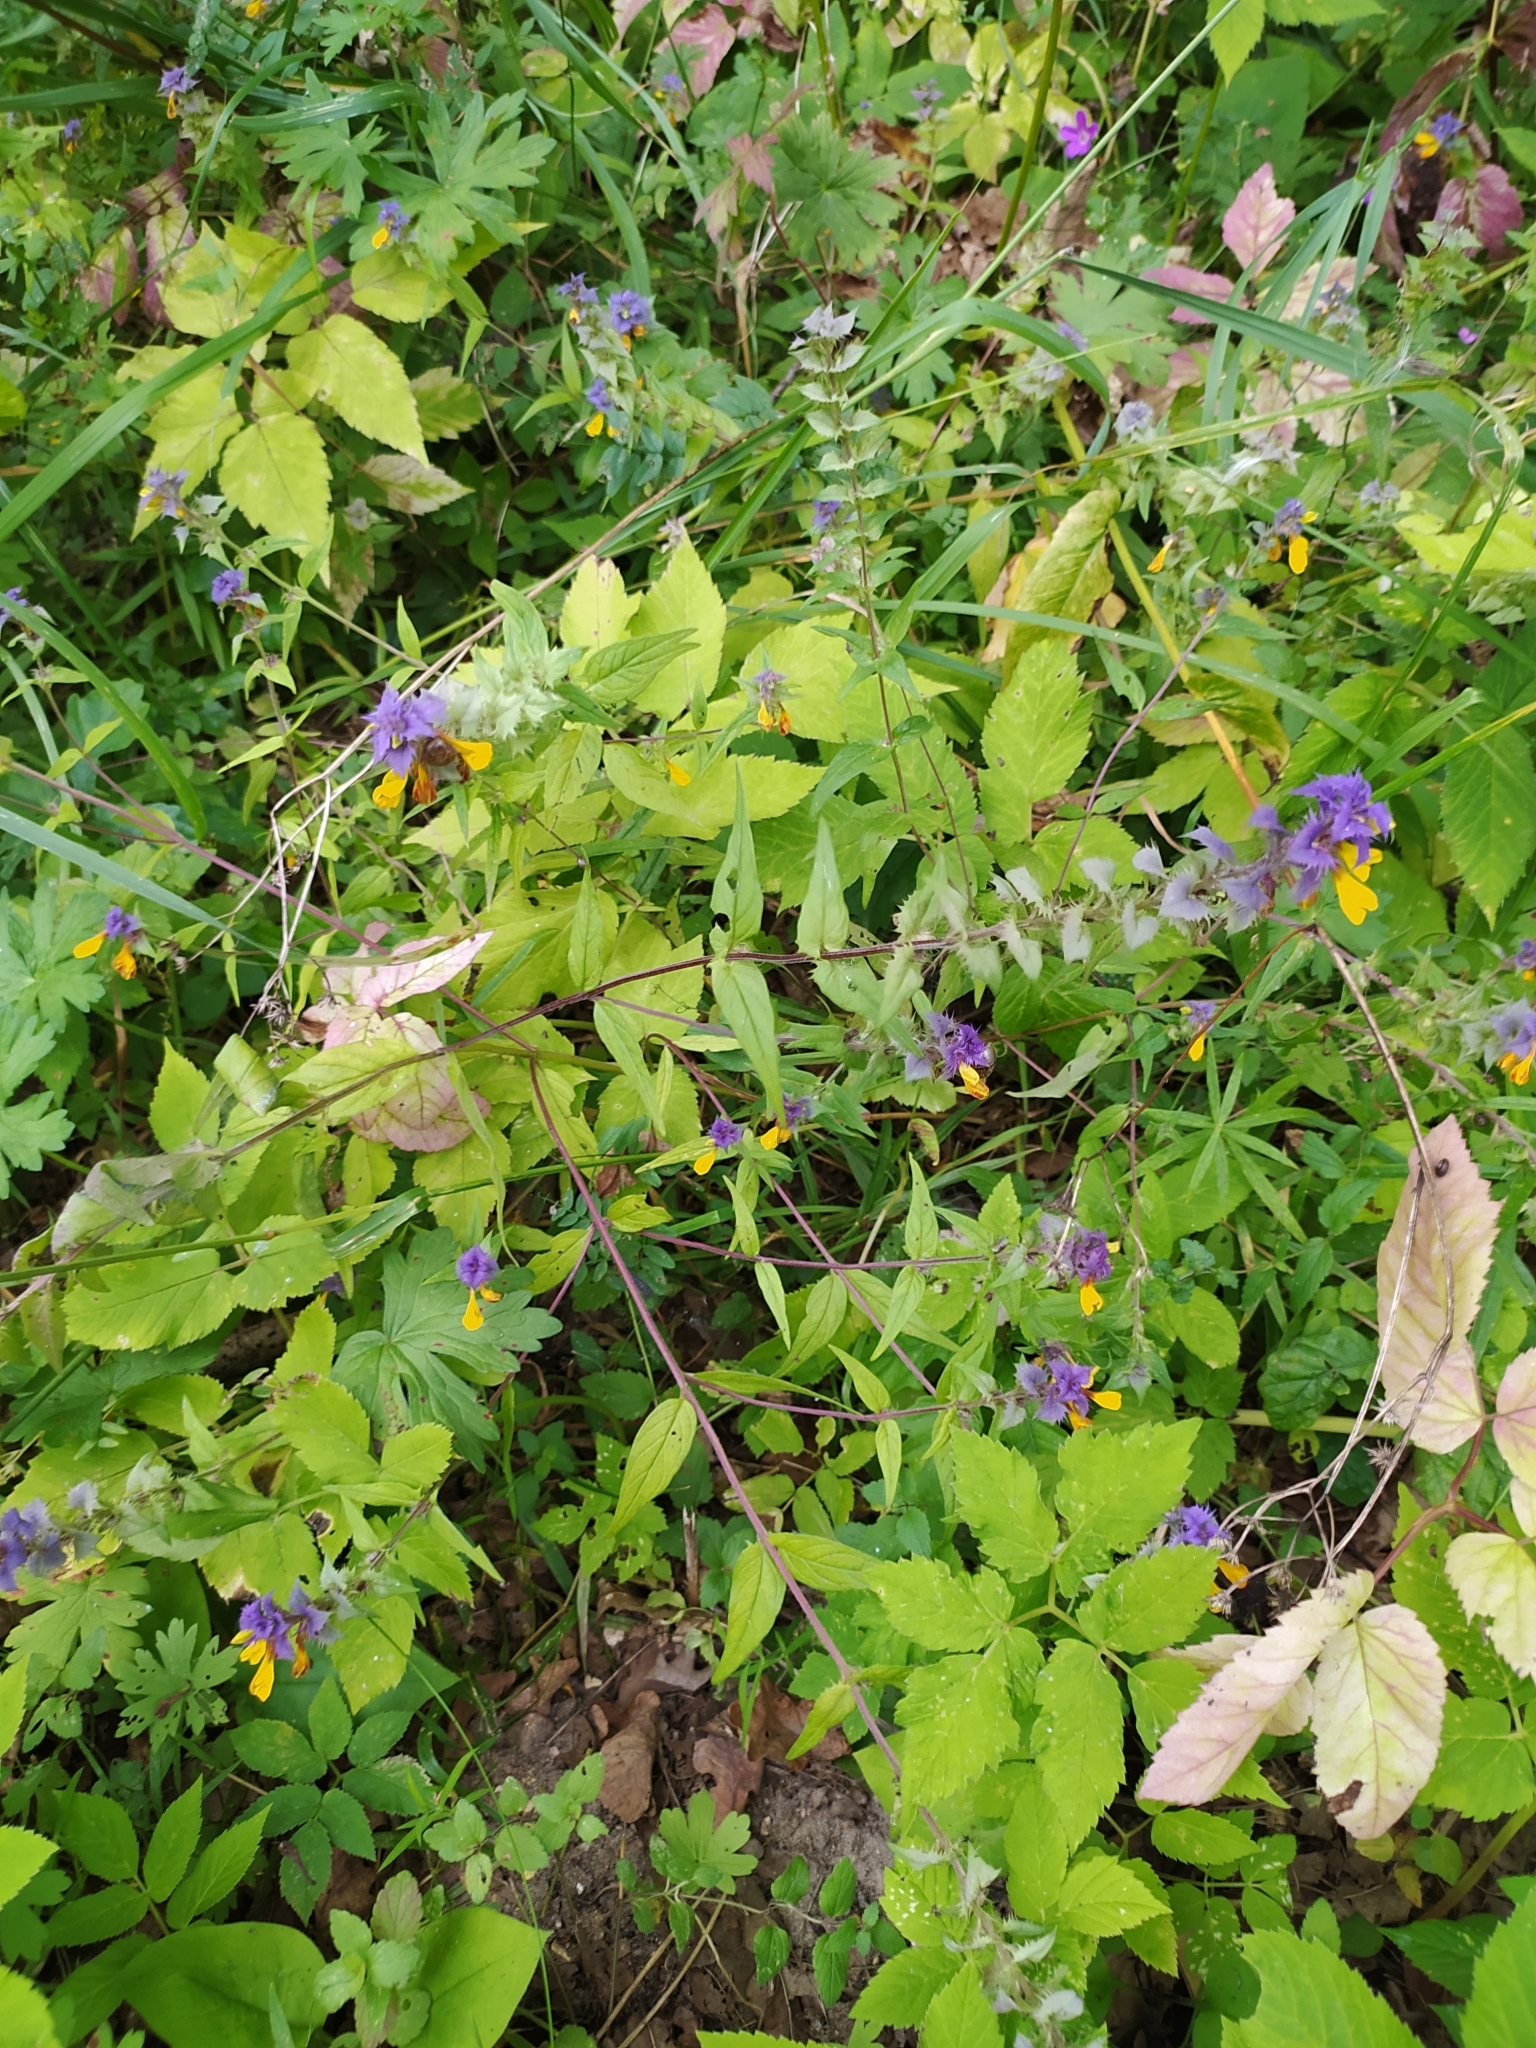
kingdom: Plantae
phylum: Tracheophyta
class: Magnoliopsida
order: Lamiales
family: Orobanchaceae
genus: Melampyrum
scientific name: Melampyrum nemorosum
